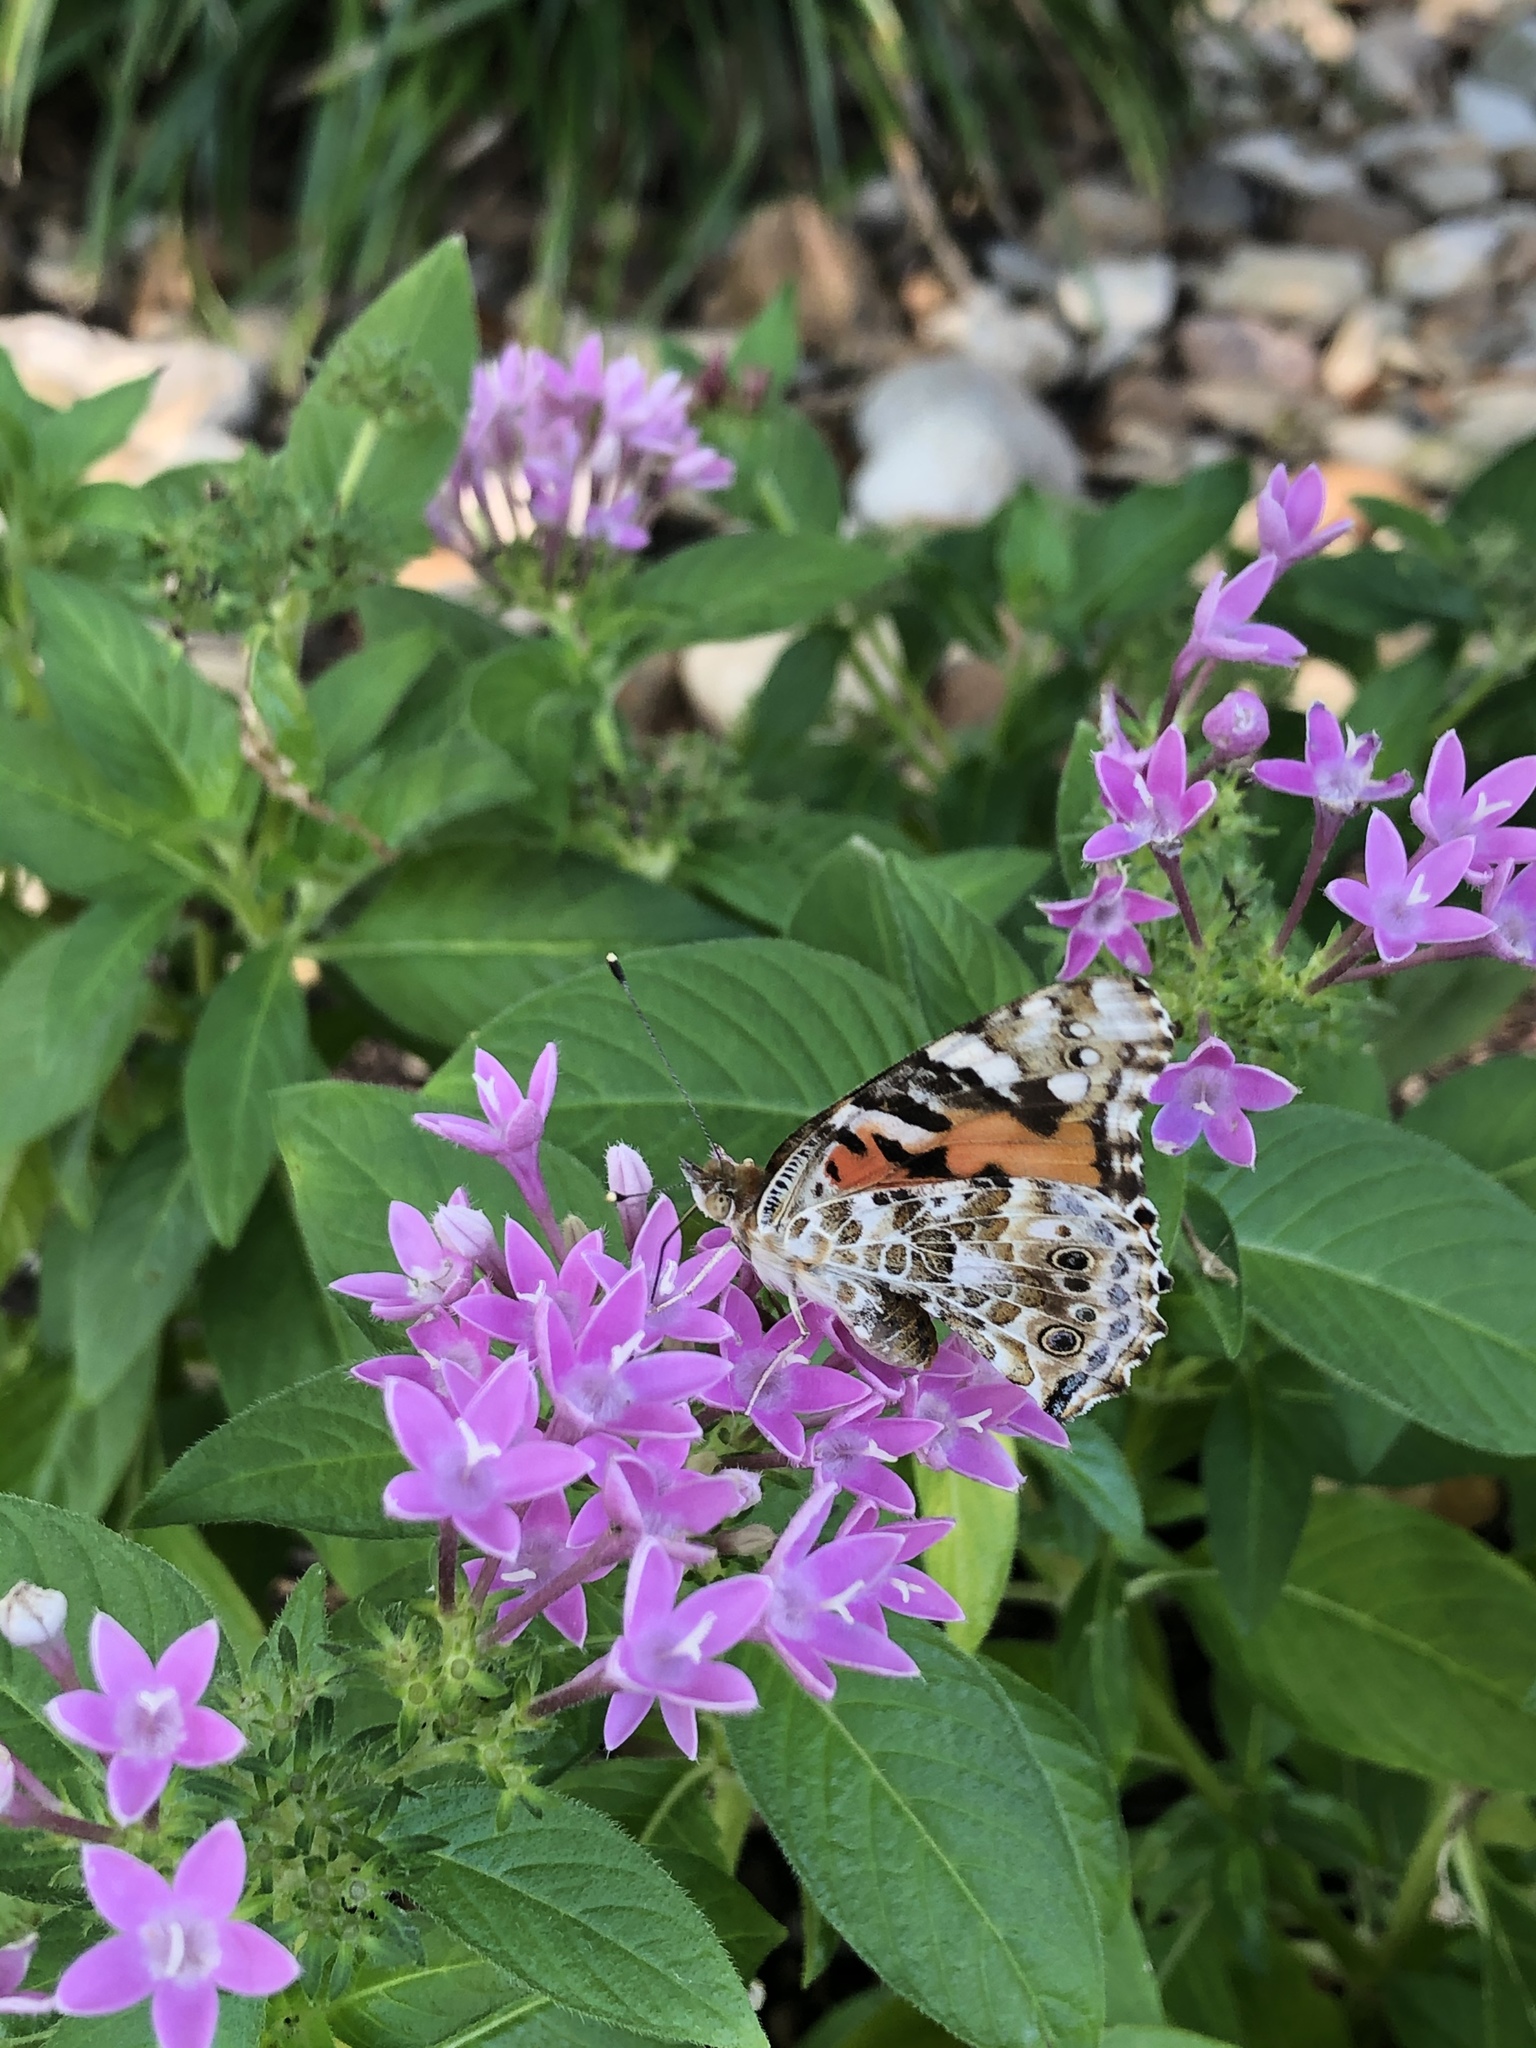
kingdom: Animalia
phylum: Arthropoda
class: Insecta
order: Lepidoptera
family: Nymphalidae
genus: Vanessa
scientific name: Vanessa cardui
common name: Painted lady
